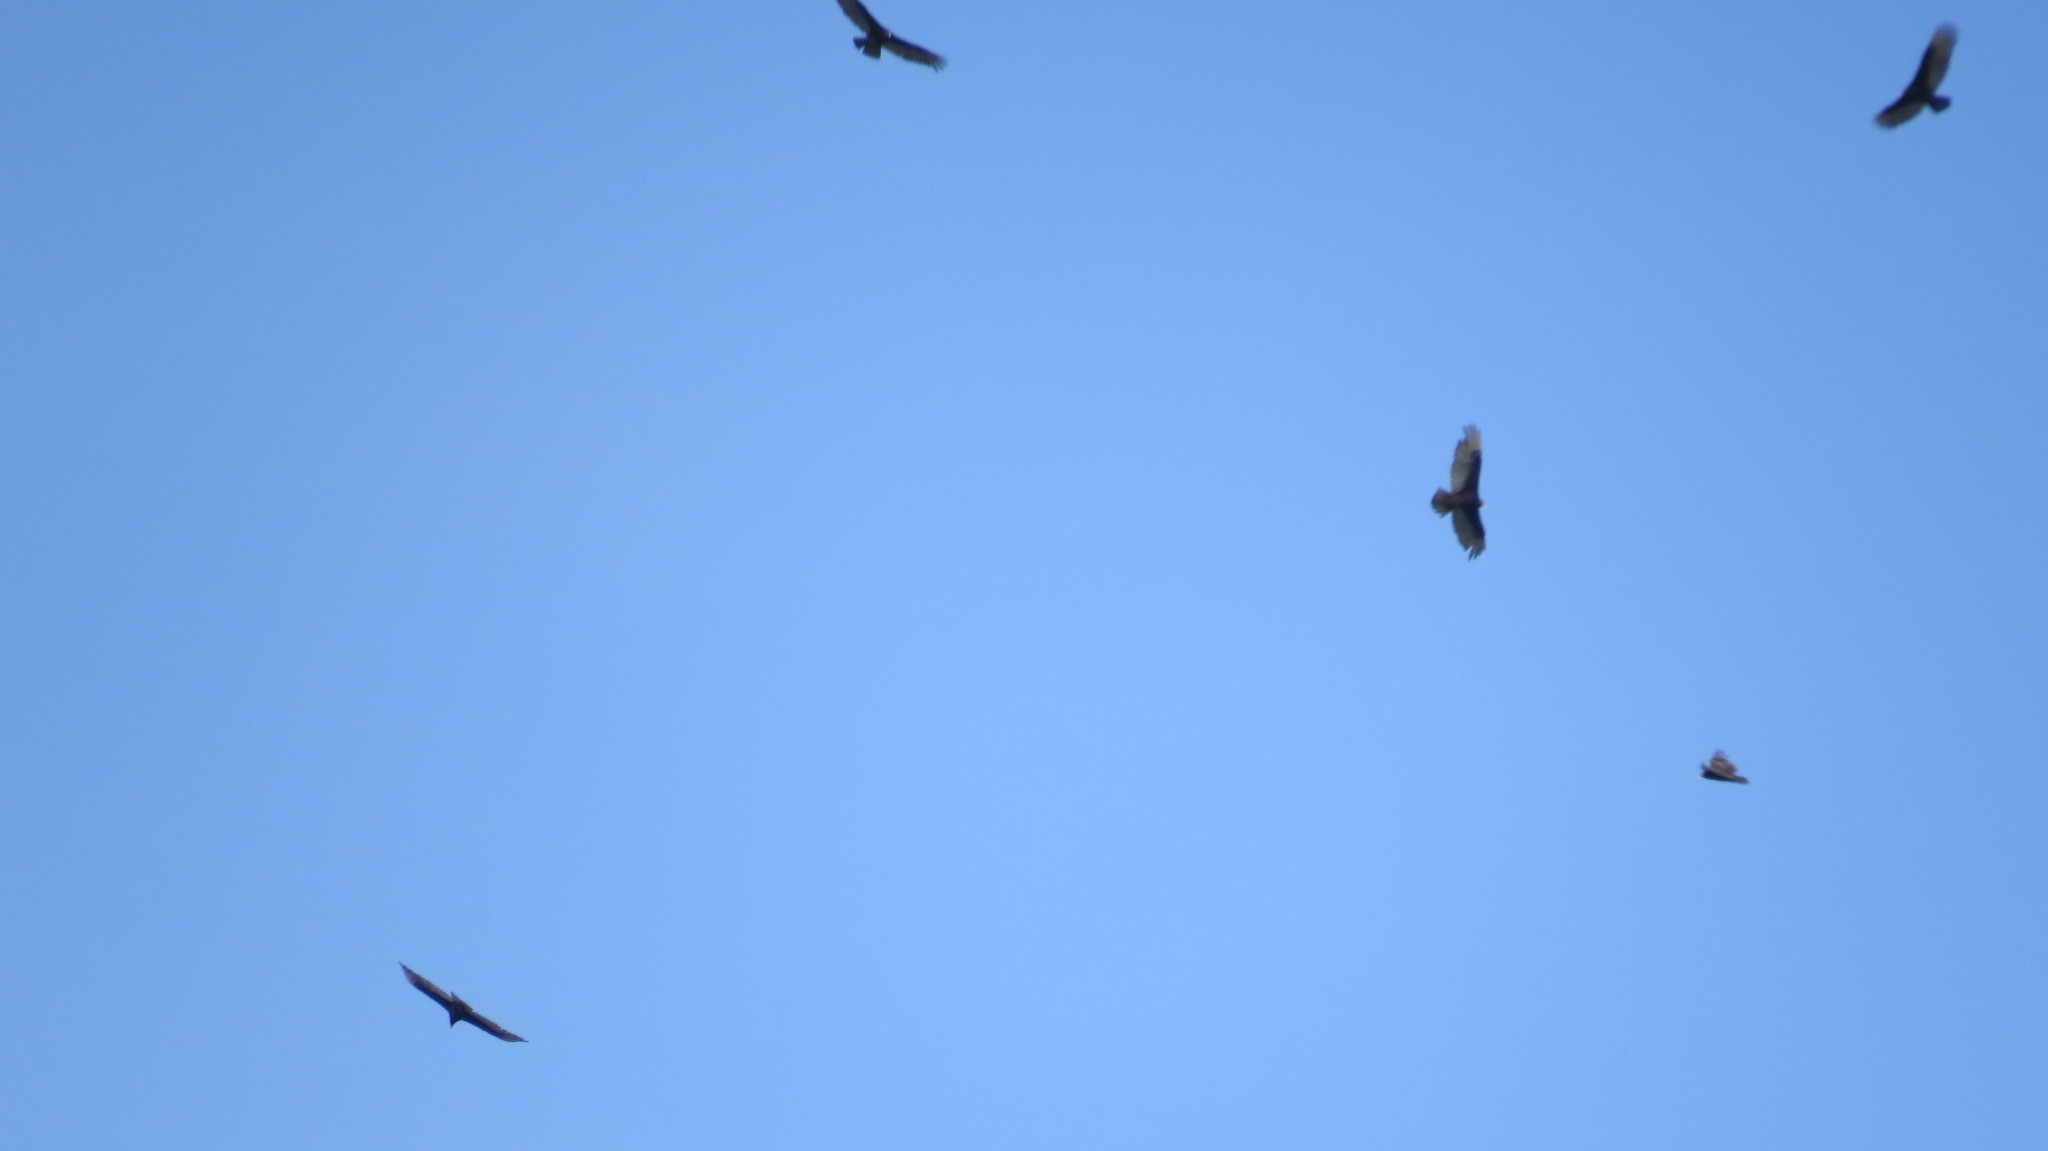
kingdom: Animalia
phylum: Chordata
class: Aves
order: Accipitriformes
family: Cathartidae
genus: Cathartes
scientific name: Cathartes aura
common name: Turkey vulture
